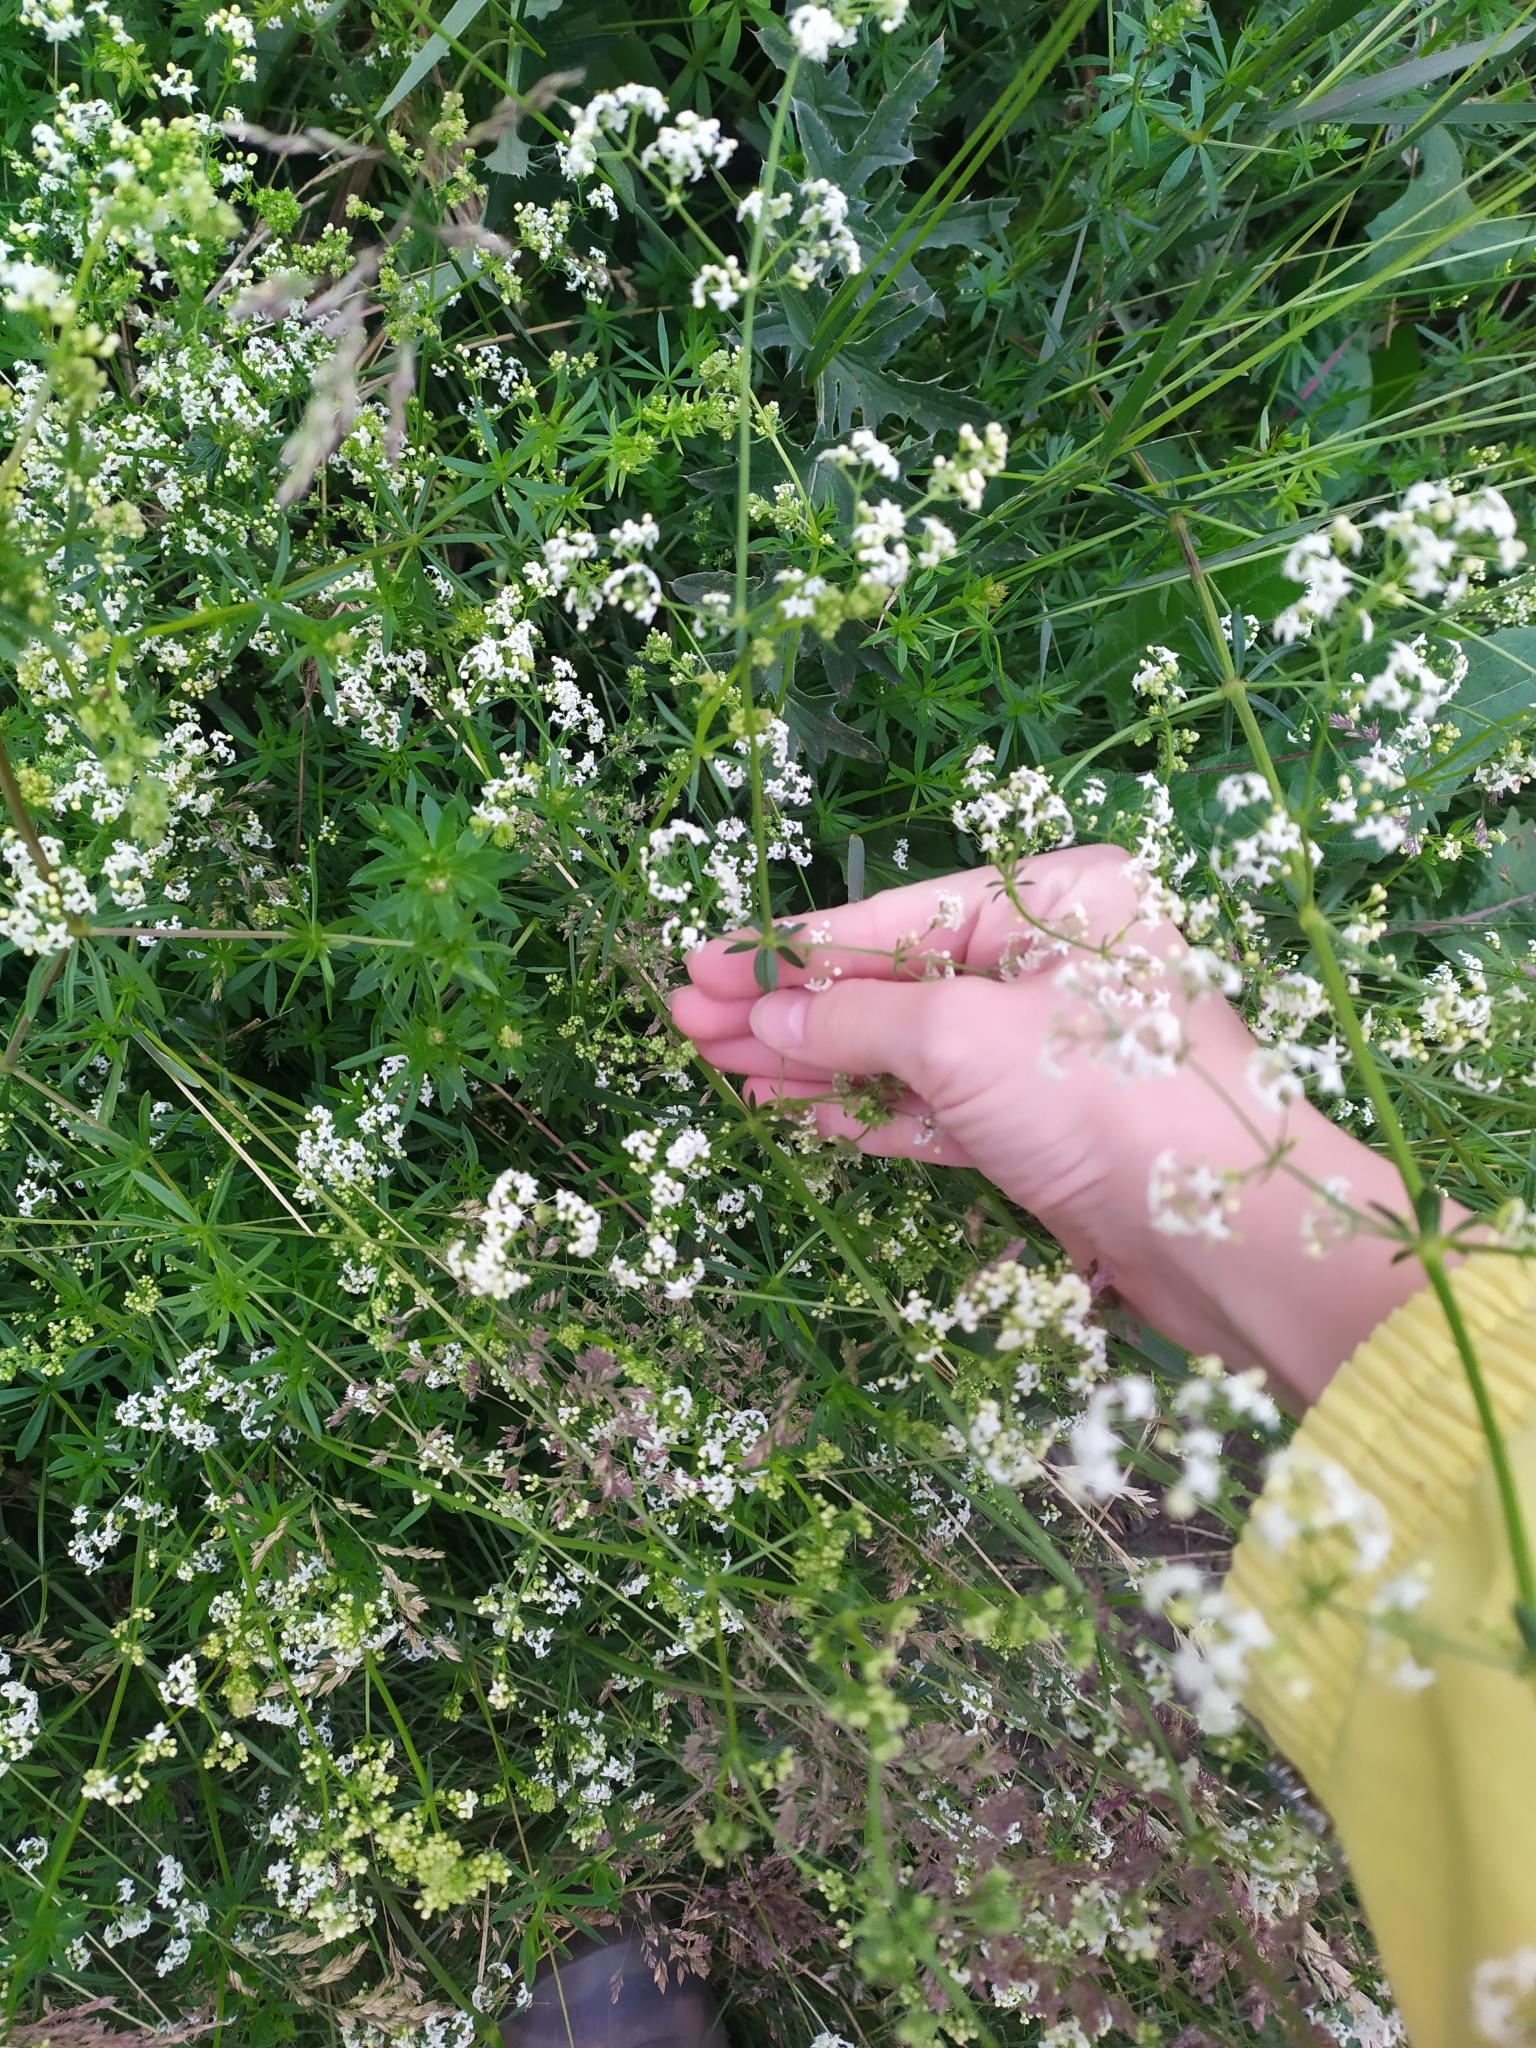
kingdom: Plantae
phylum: Tracheophyta
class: Magnoliopsida
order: Gentianales
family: Rubiaceae
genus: Galium
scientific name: Galium mollugo
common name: Hedge bedstraw
